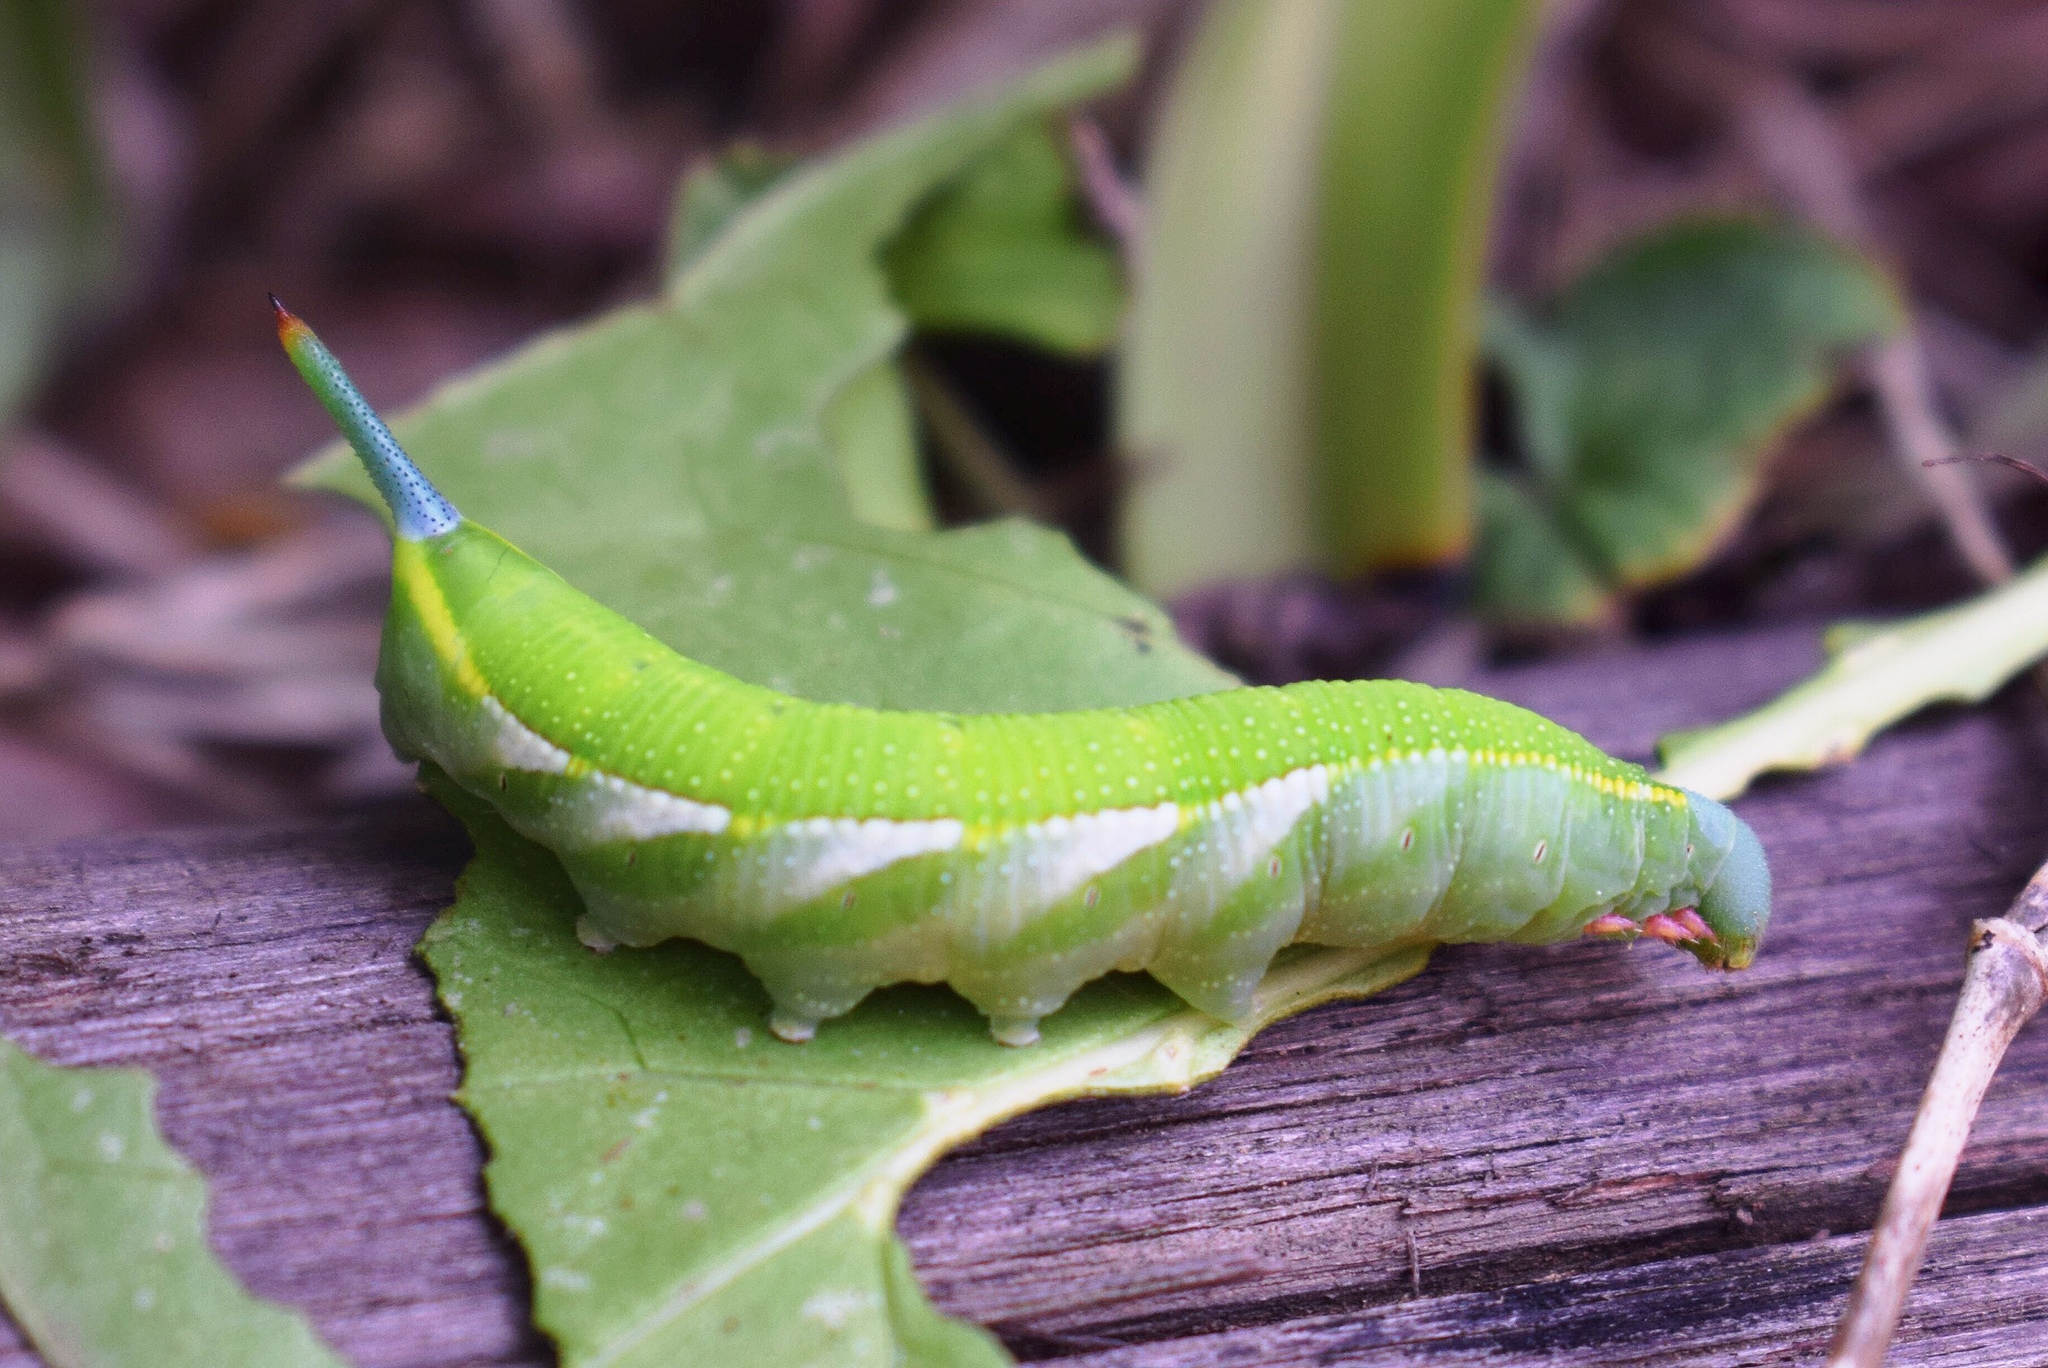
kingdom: Animalia
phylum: Arthropoda
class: Insecta
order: Lepidoptera
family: Sphingidae
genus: Temnora
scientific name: Temnora marginata
